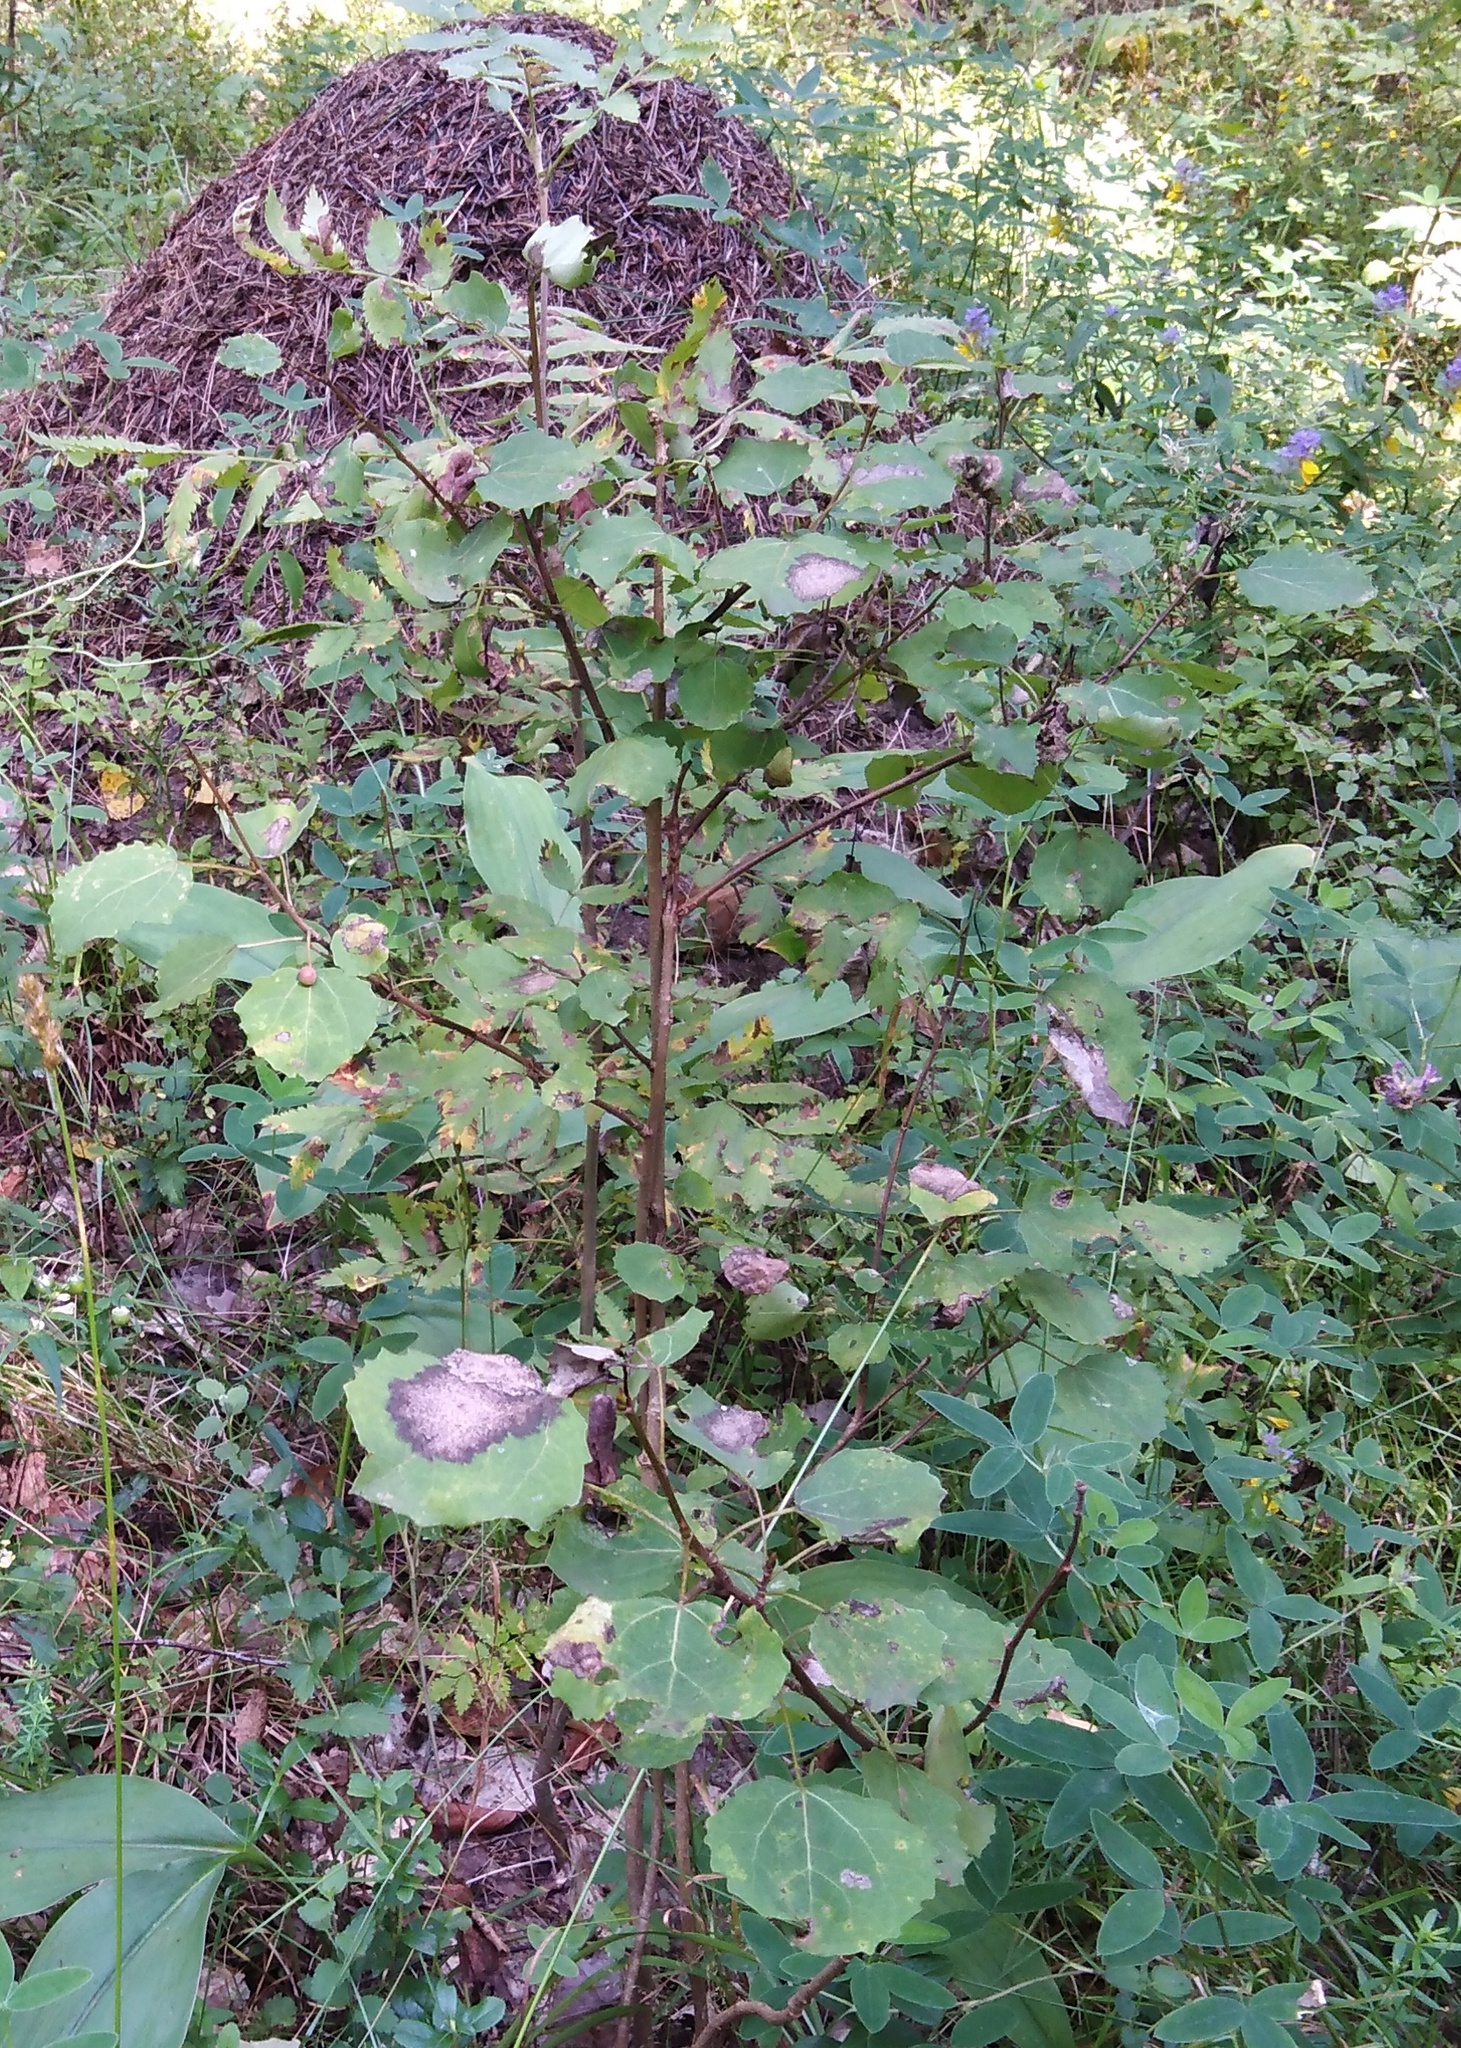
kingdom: Plantae
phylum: Tracheophyta
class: Magnoliopsida
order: Malpighiales
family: Salicaceae
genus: Populus
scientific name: Populus tremula
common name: European aspen
